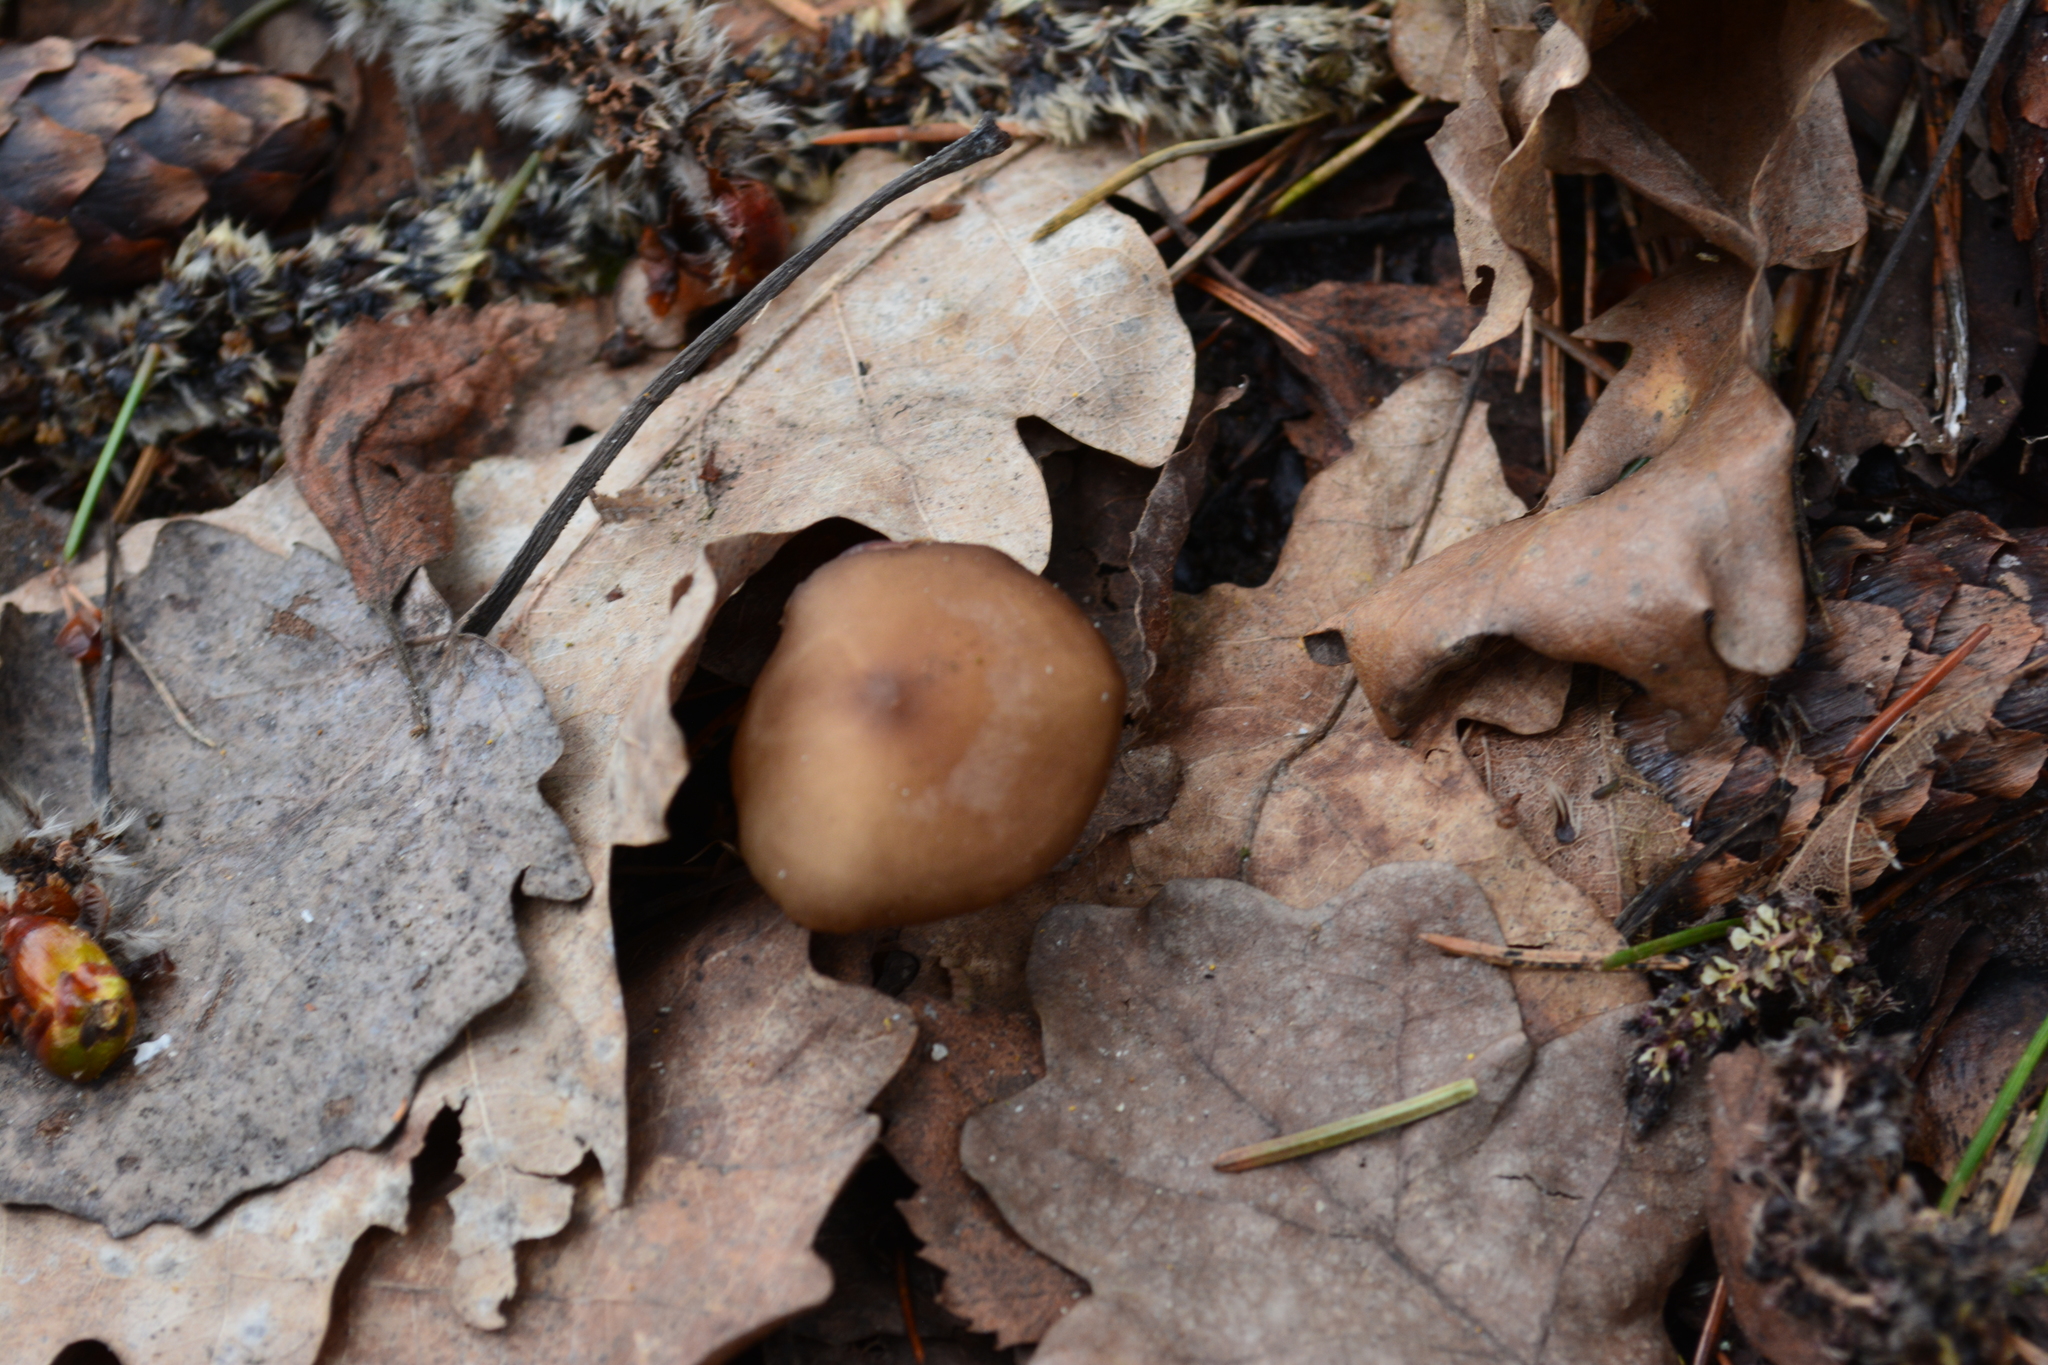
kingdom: Fungi
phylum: Basidiomycota
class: Agaricomycetes
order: Agaricales
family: Physalacriaceae
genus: Strobilurus
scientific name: Strobilurus esculentus
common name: Sprucecone cap
